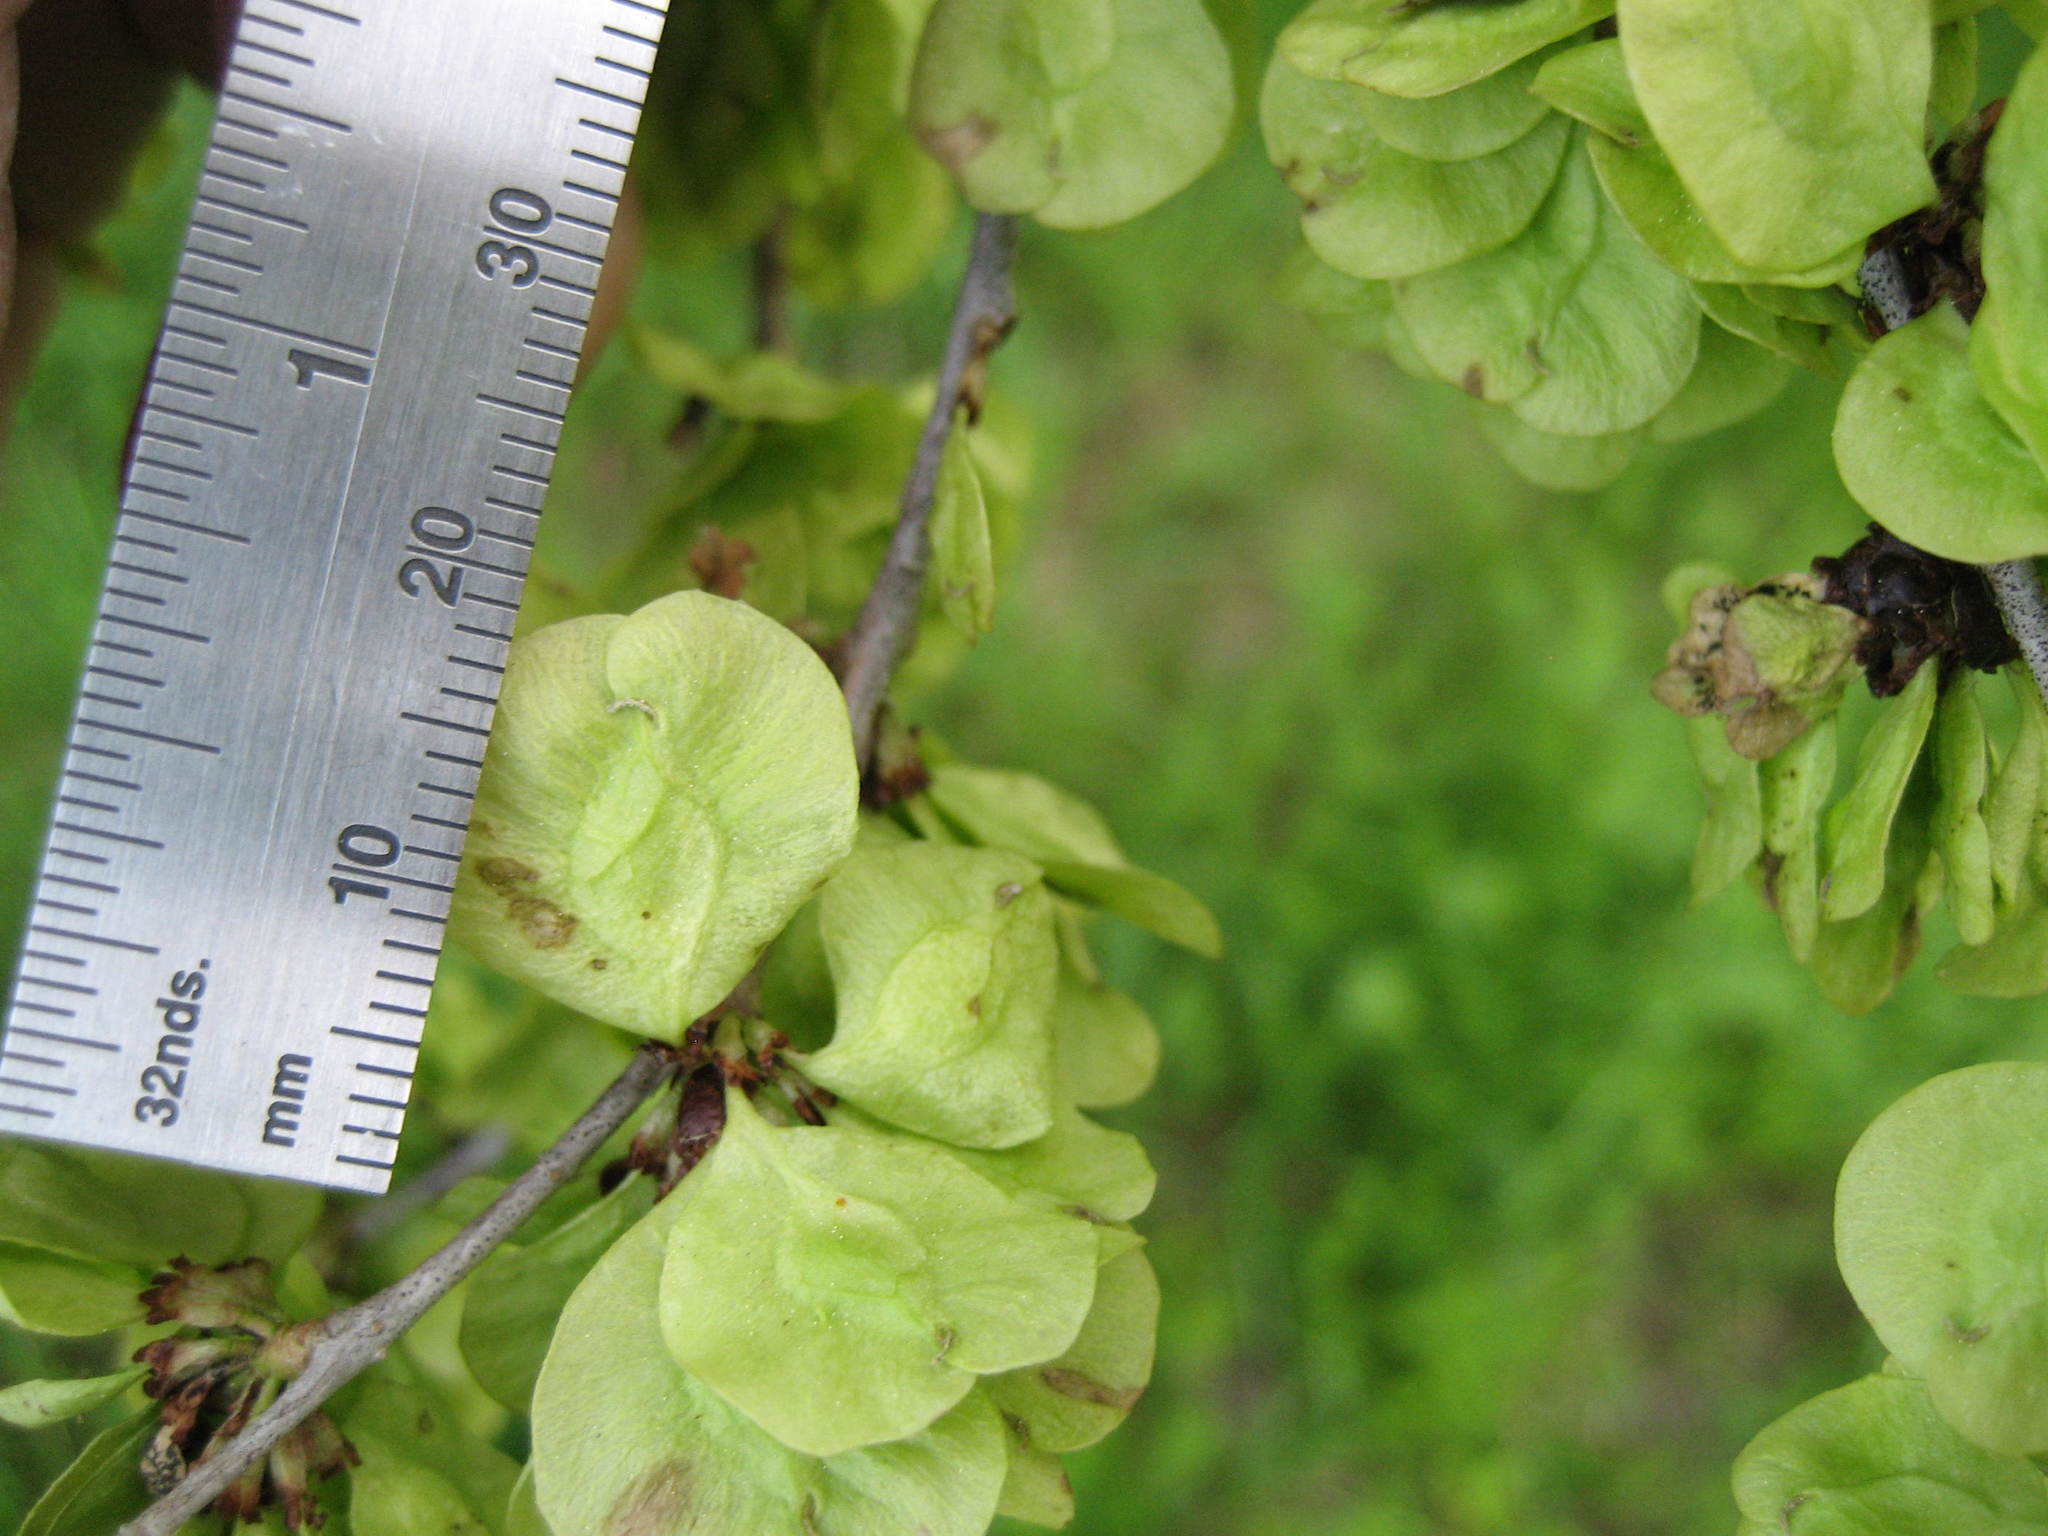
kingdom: Plantae
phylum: Tracheophyta
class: Magnoliopsida
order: Rosales
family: Ulmaceae
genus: Ulmus
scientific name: Ulmus pumila
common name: Siberian elm
